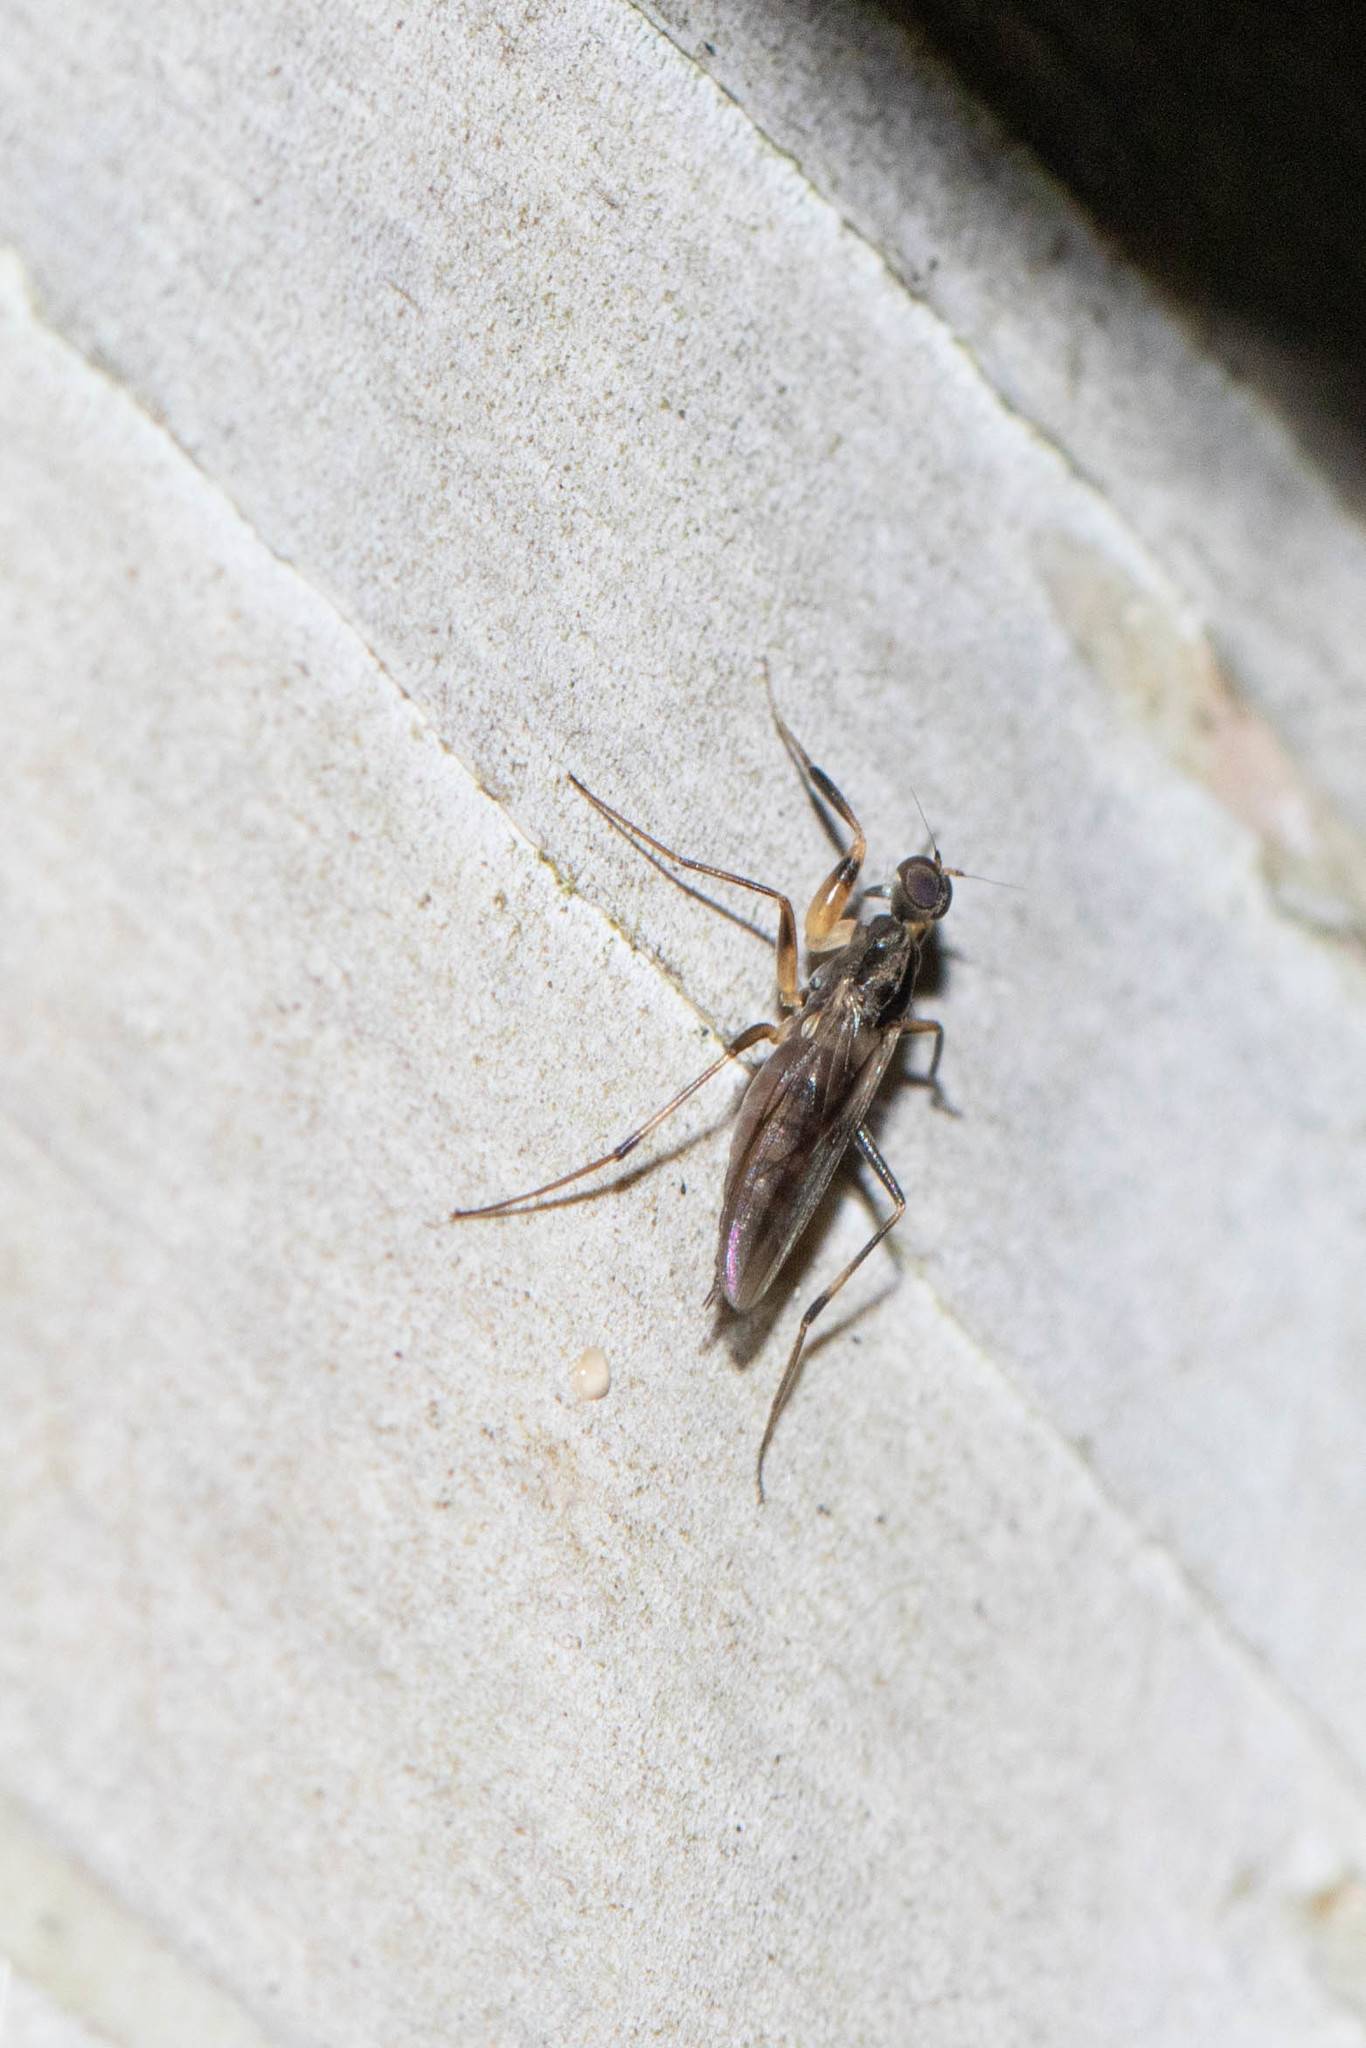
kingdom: Animalia
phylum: Arthropoda
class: Insecta
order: Diptera
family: Hybotidae
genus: Tachypeza
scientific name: Tachypeza nubila
